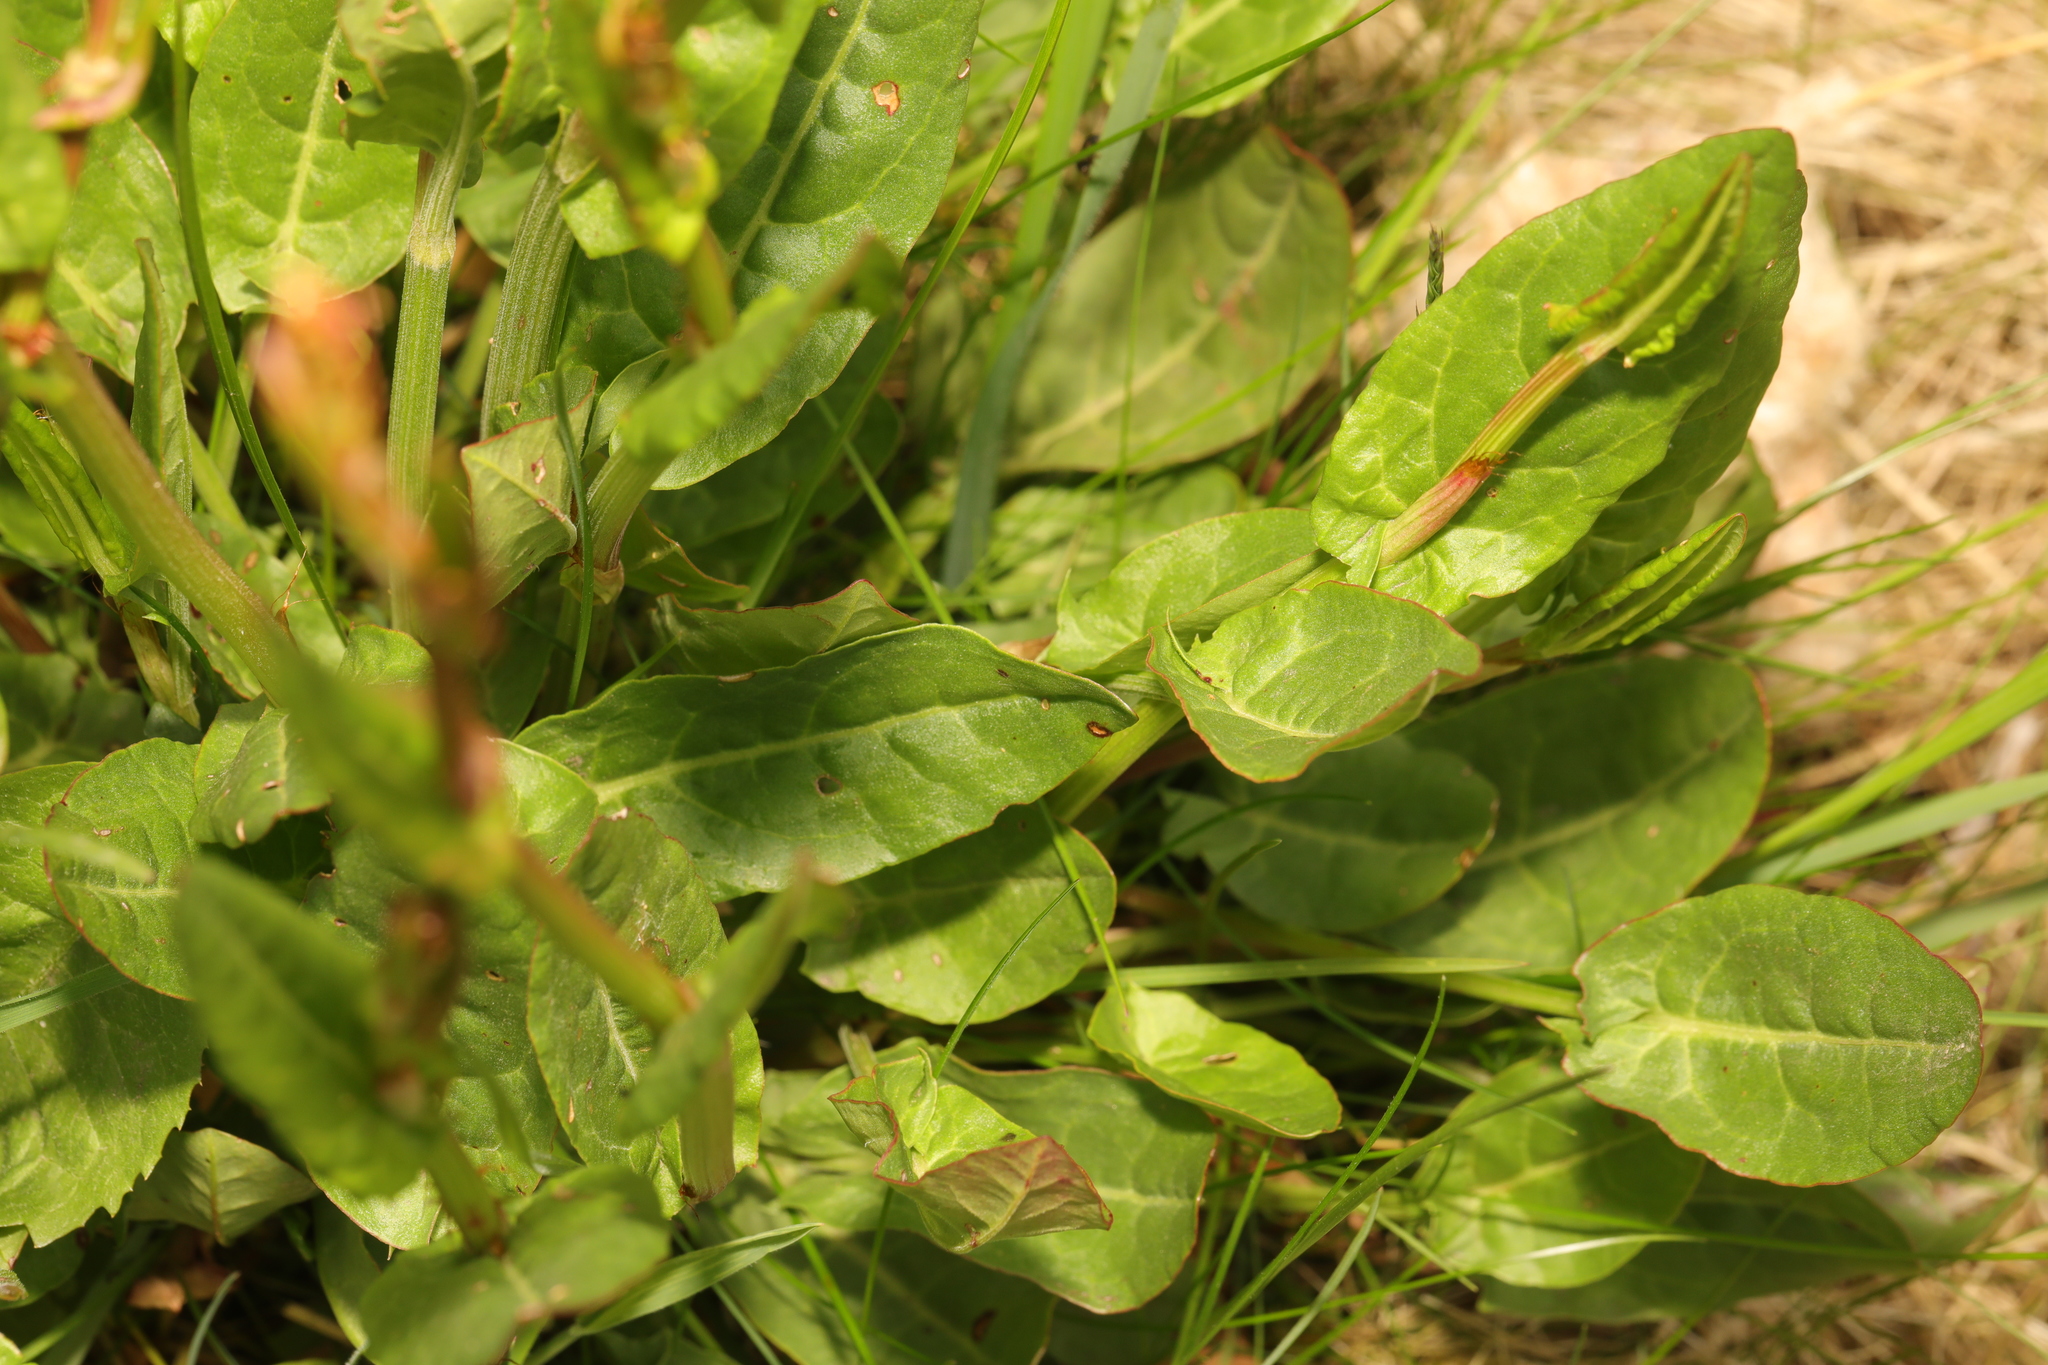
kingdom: Plantae
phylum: Tracheophyta
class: Magnoliopsida
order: Caryophyllales
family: Polygonaceae
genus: Rumex
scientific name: Rumex acetosa
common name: Garden sorrel
